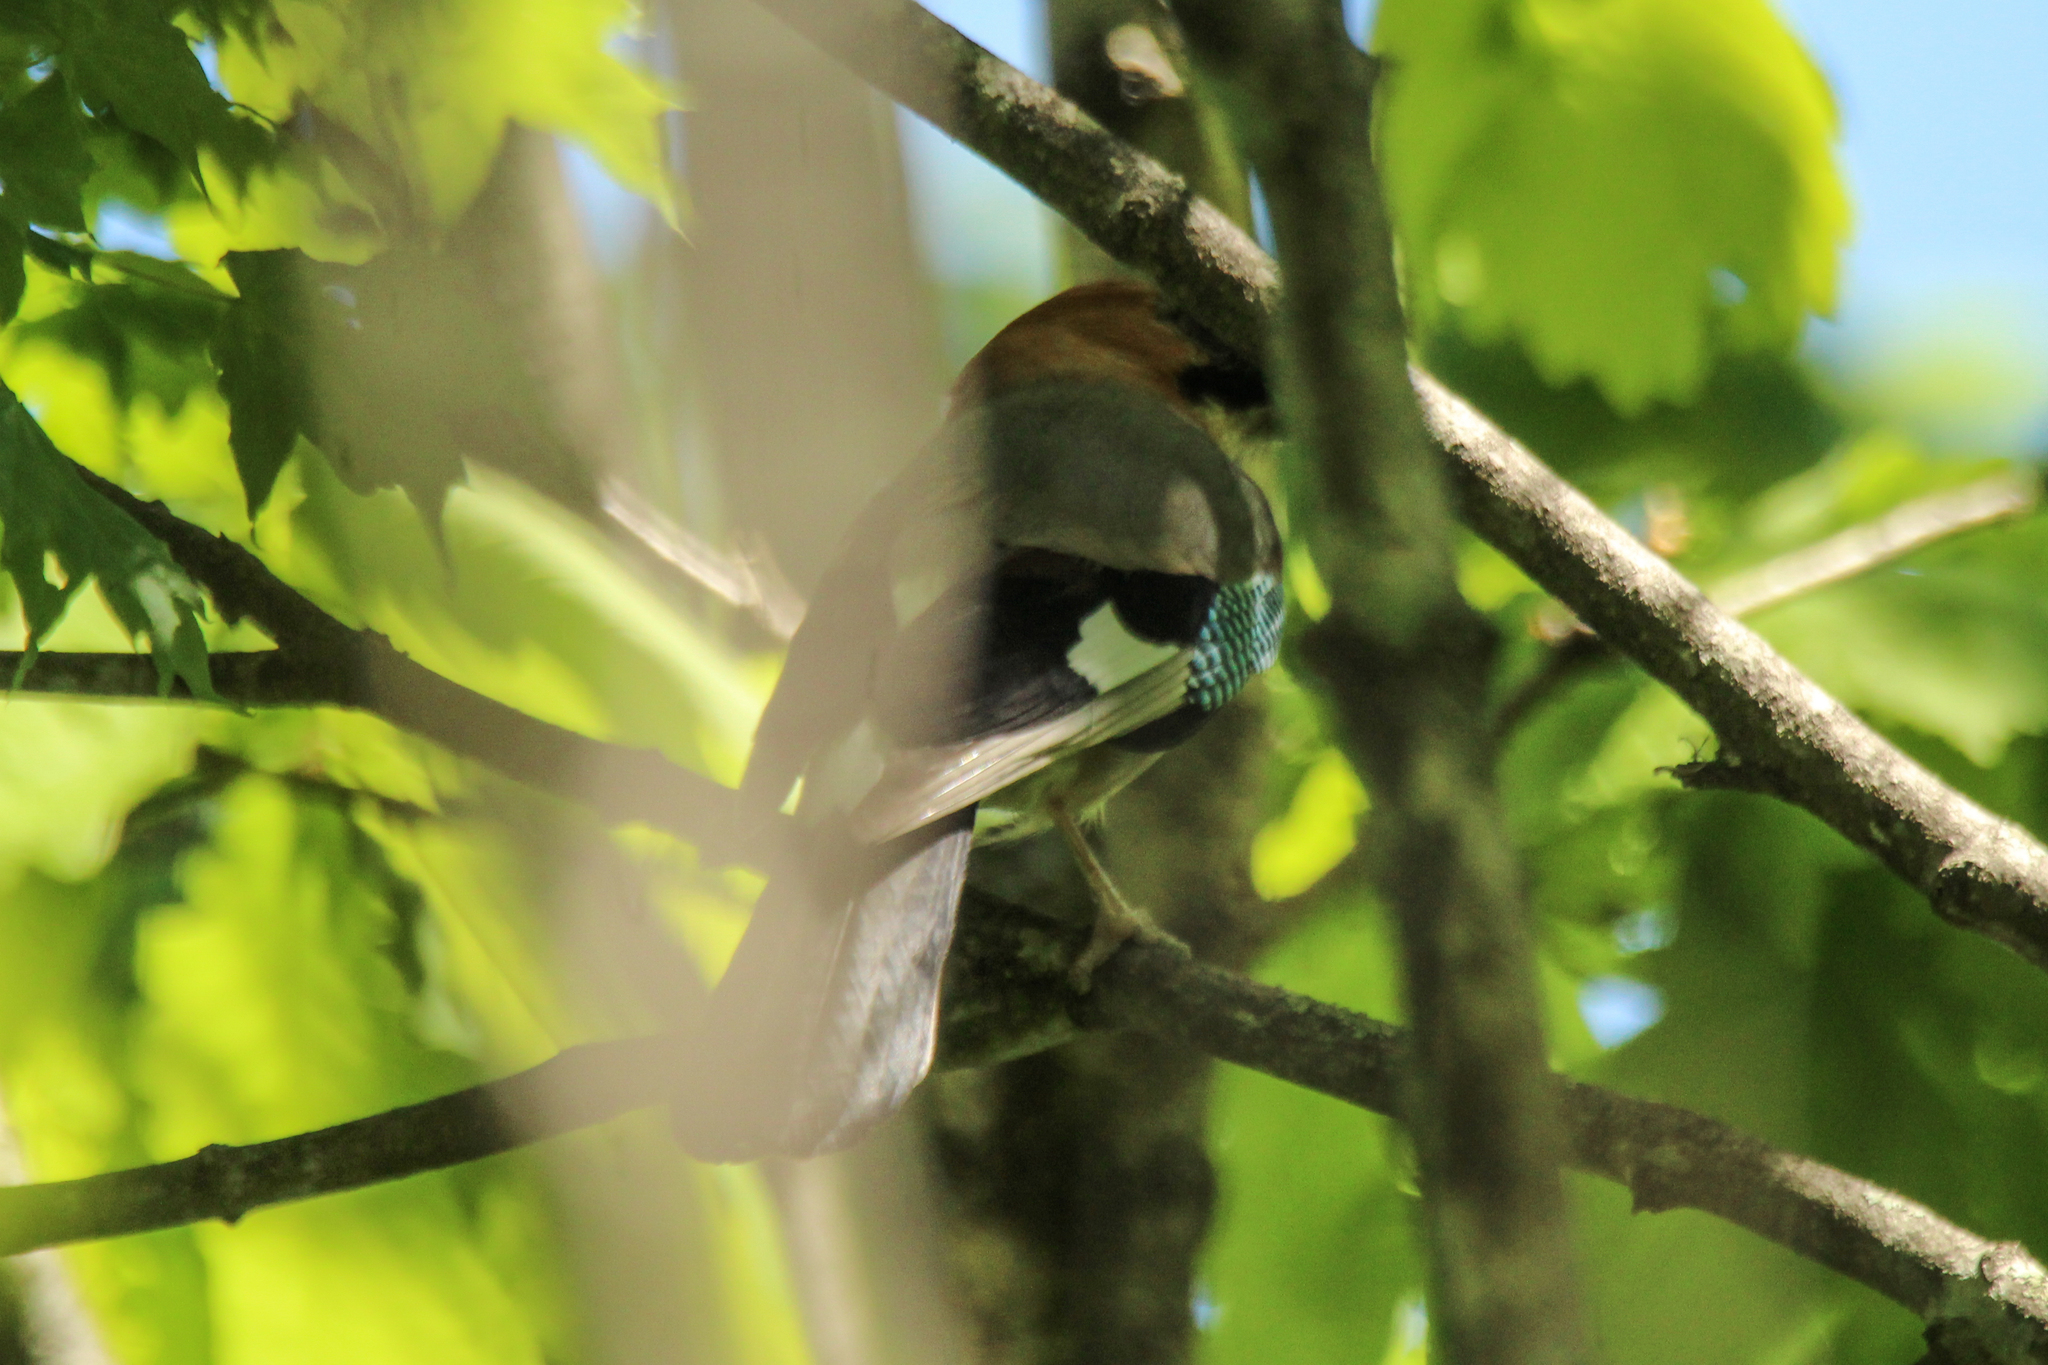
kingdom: Animalia
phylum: Chordata
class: Aves
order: Passeriformes
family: Corvidae
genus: Garrulus
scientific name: Garrulus glandarius
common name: Eurasian jay
